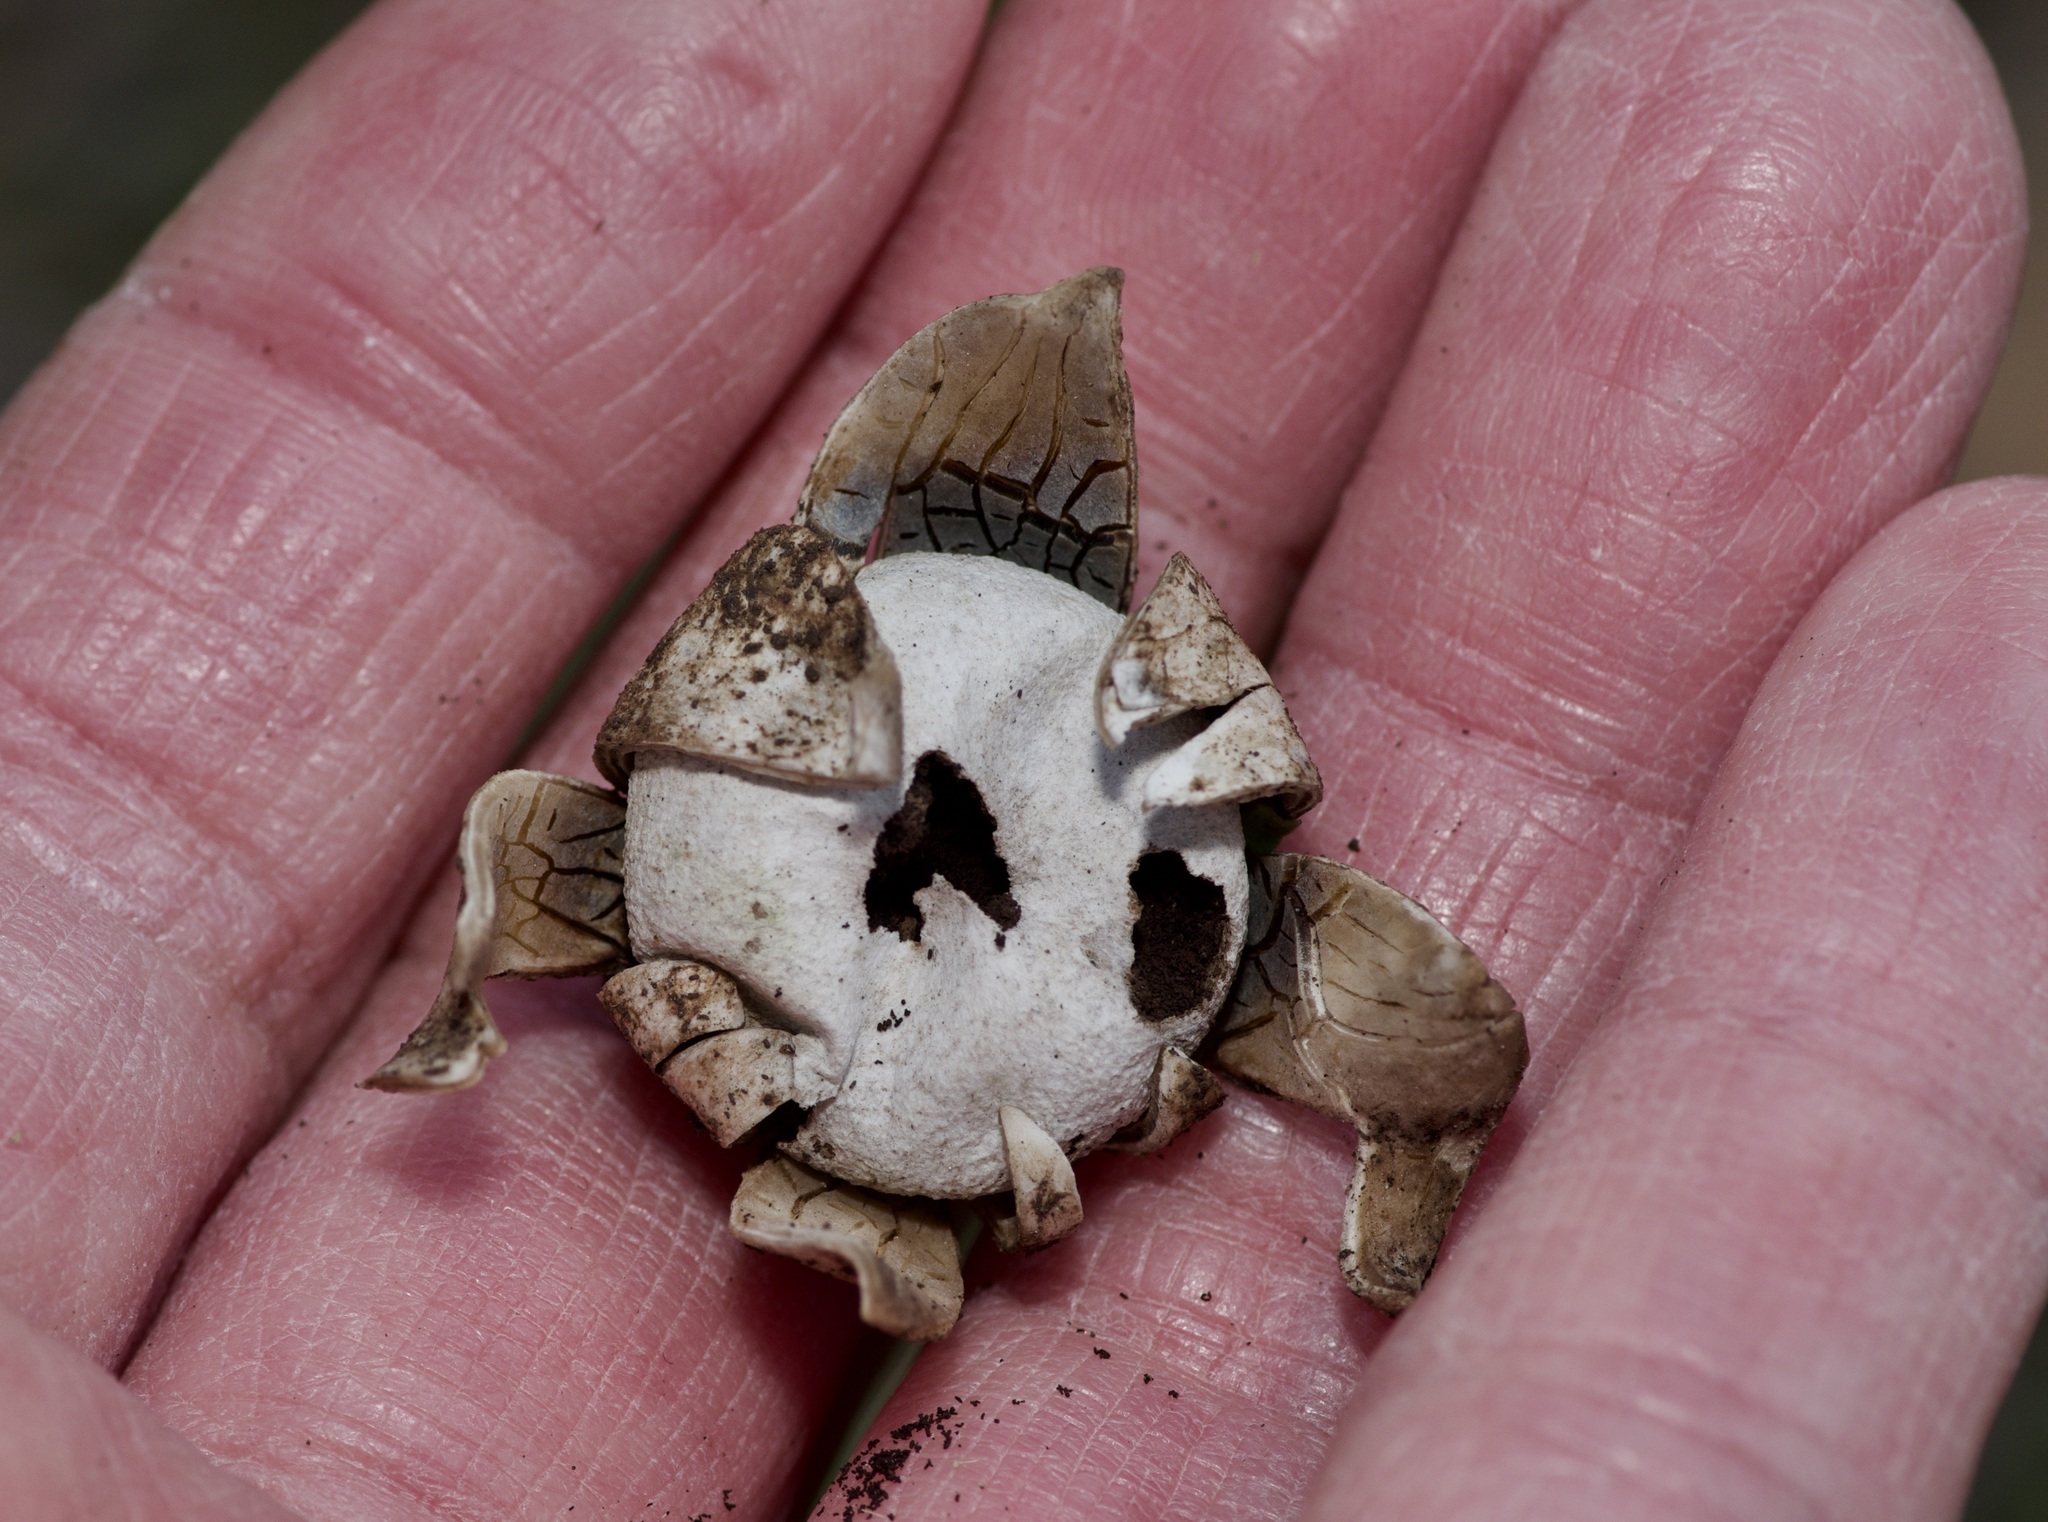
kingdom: Fungi
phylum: Basidiomycota
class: Agaricomycetes
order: Boletales
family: Diplocystidiaceae
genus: Astraeus
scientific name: Astraeus morganii
